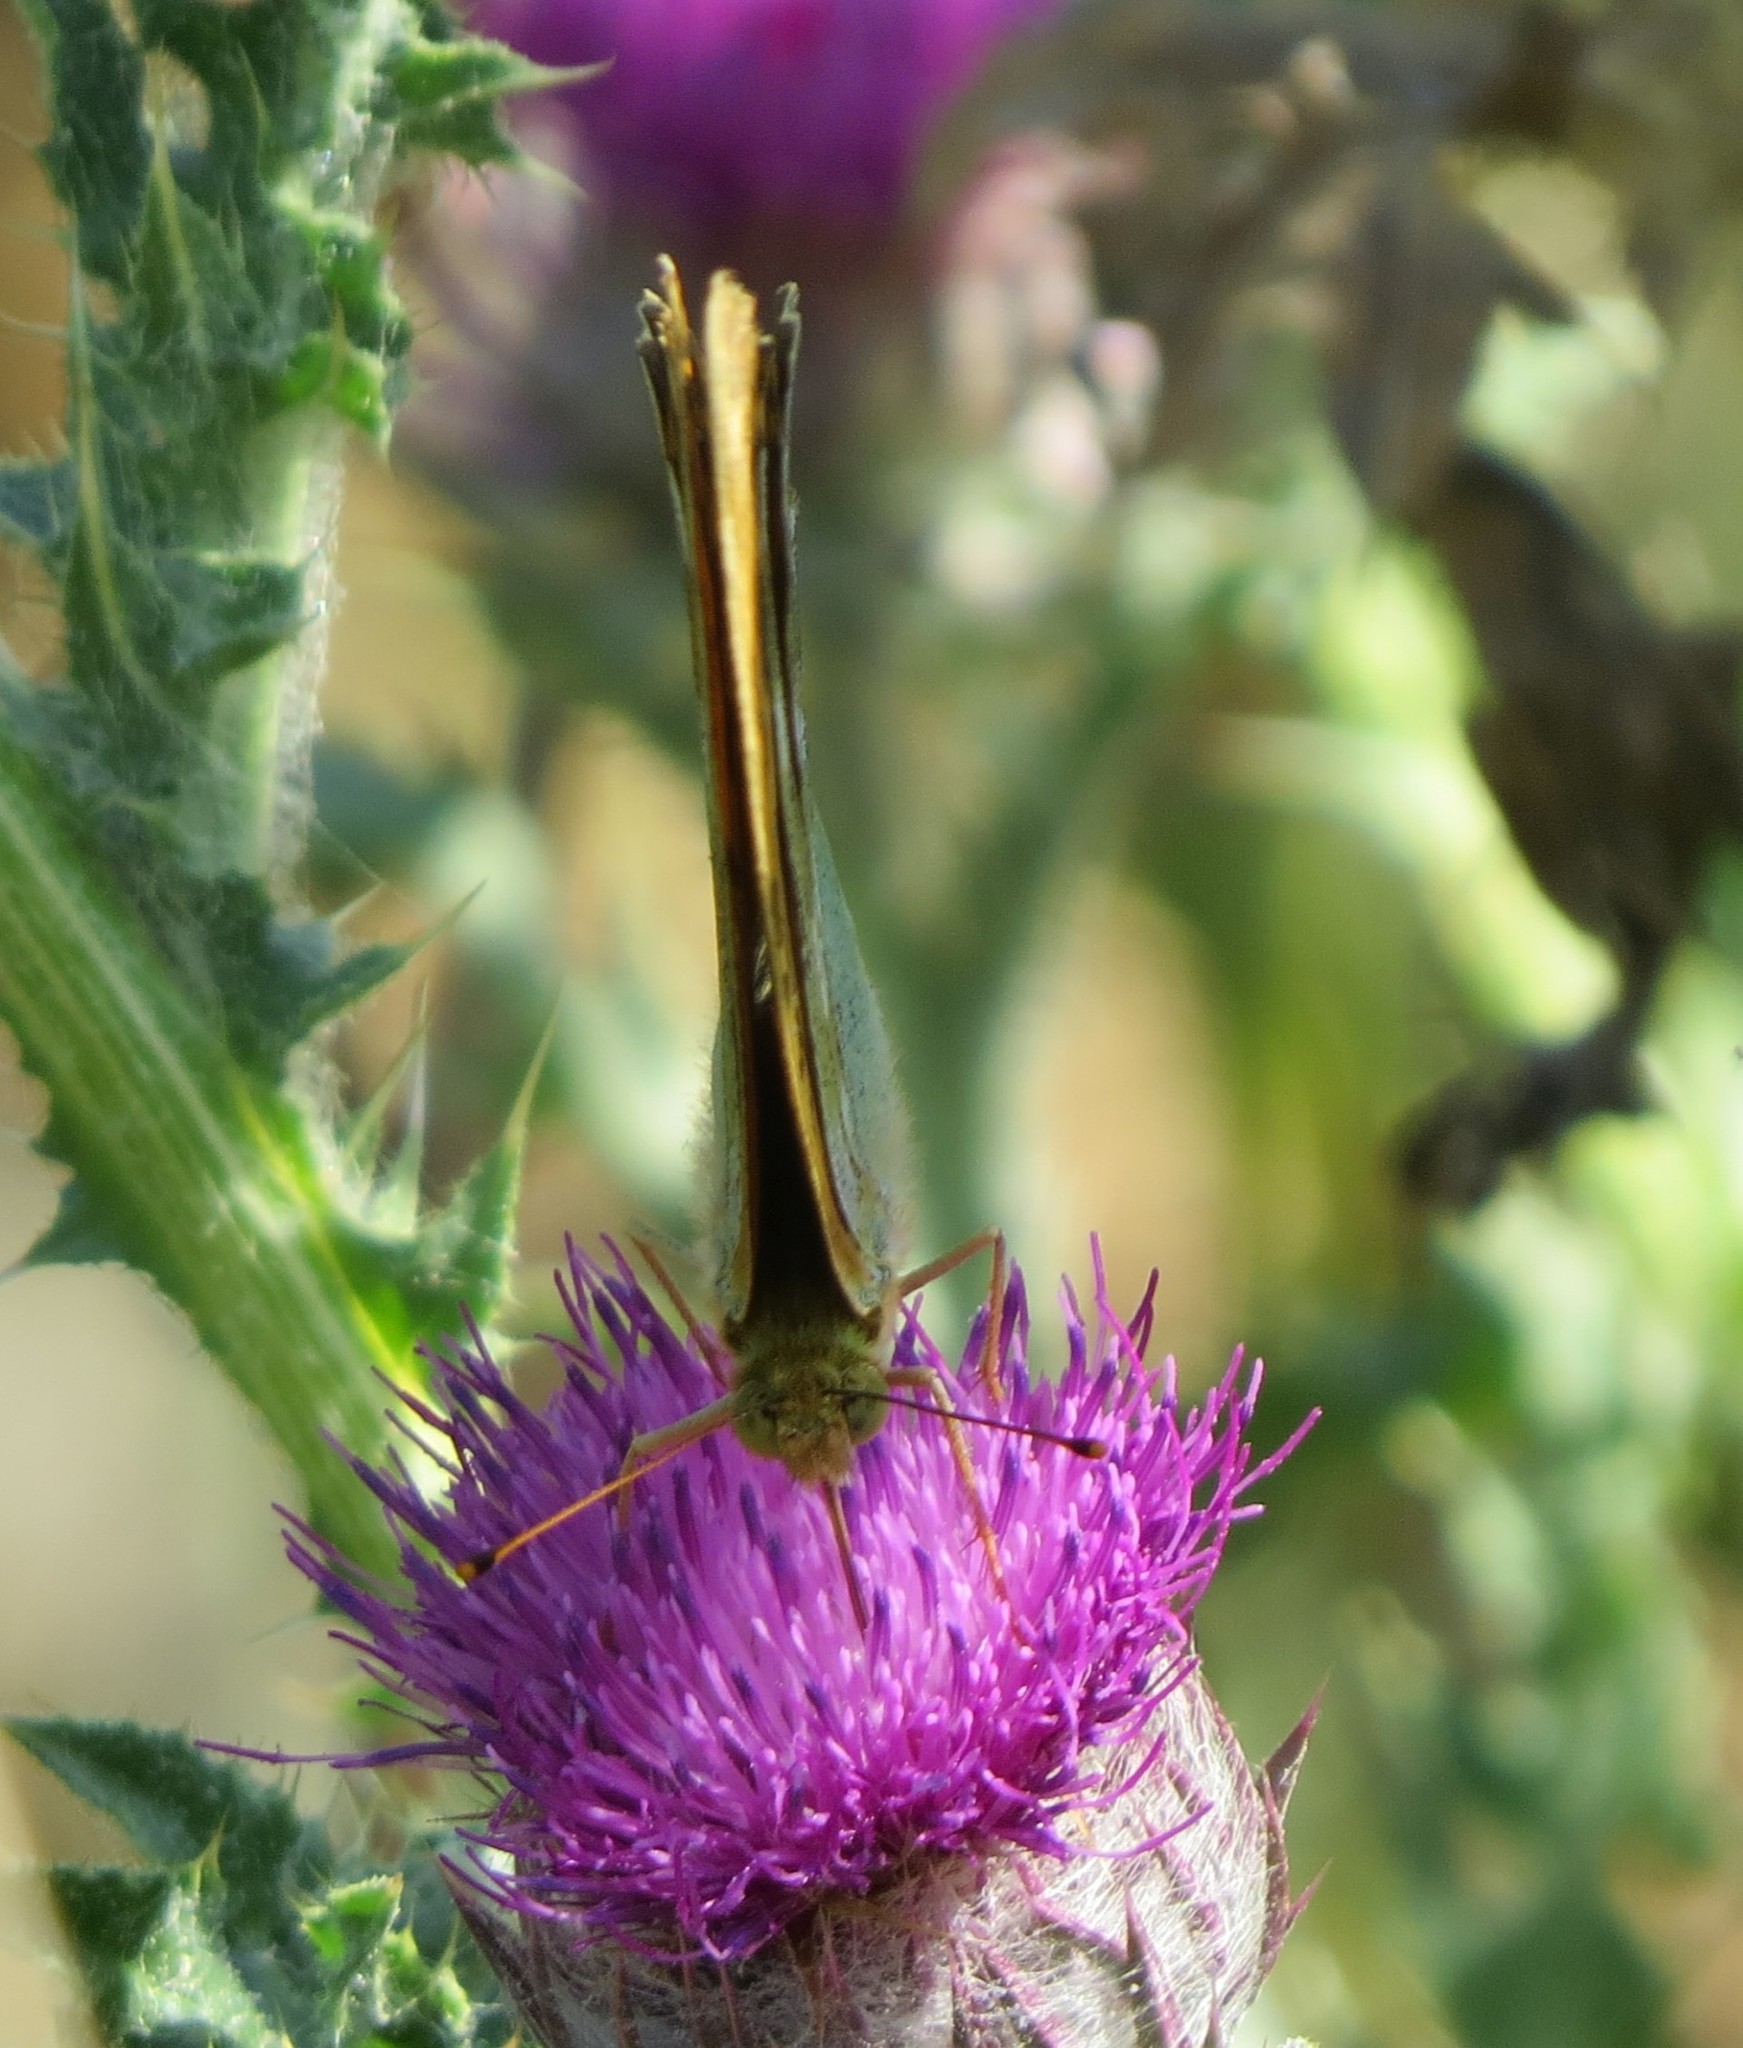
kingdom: Animalia
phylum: Arthropoda
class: Insecta
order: Lepidoptera
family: Nymphalidae
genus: Argynnis
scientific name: Argynnis paphia
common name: Silver-washed fritillary
